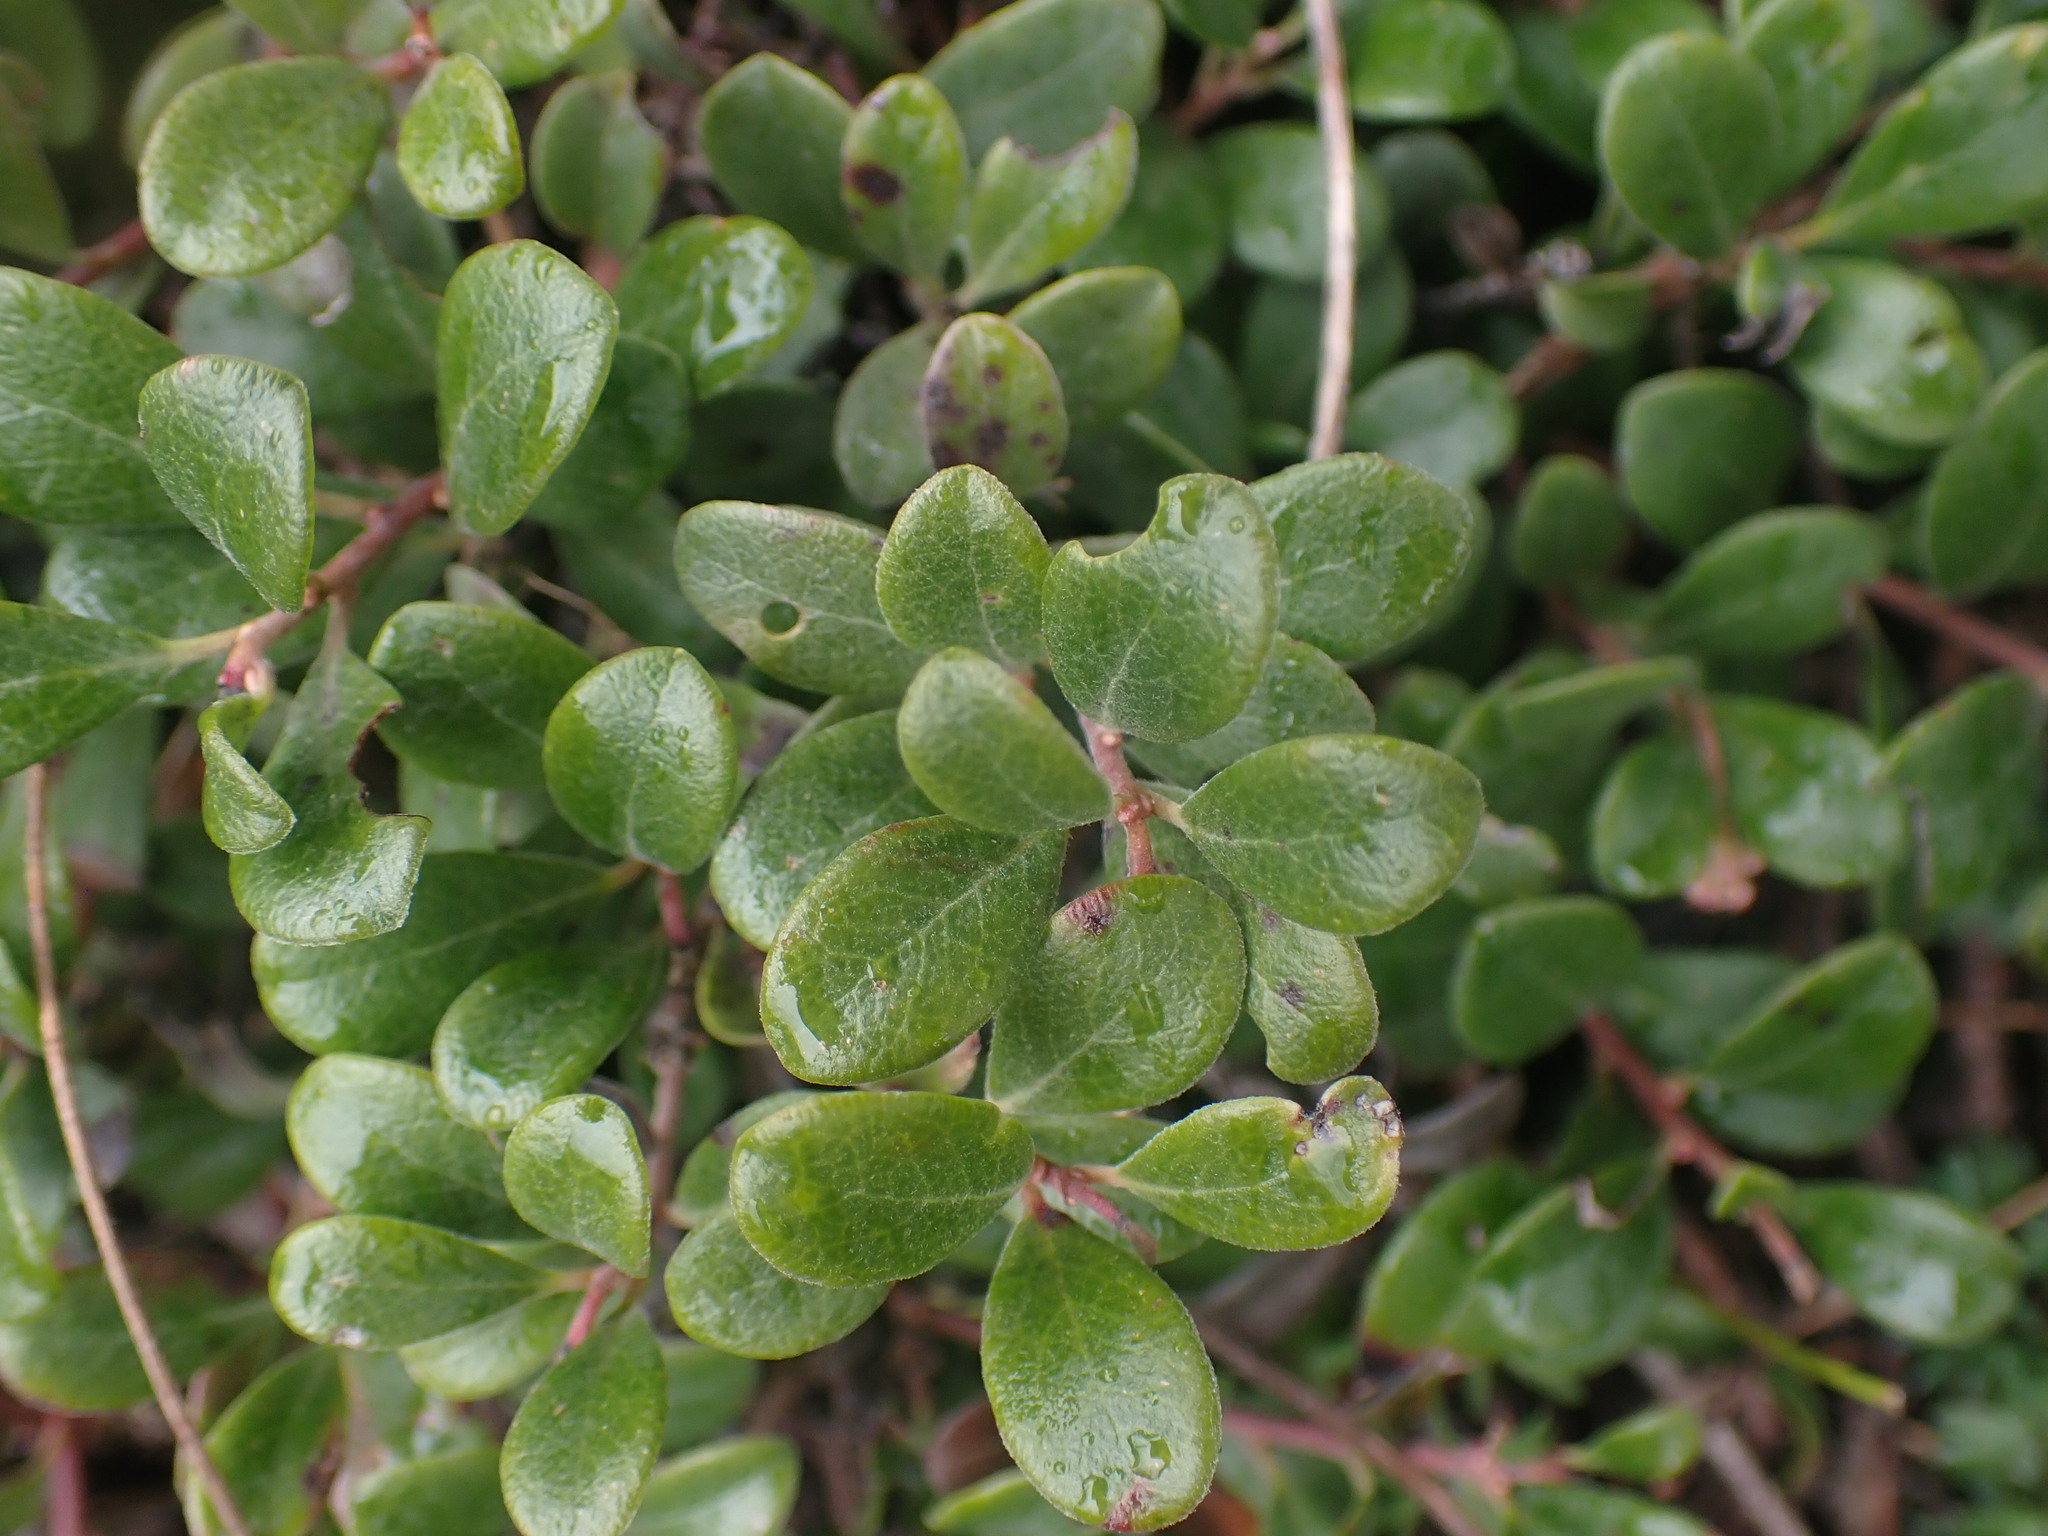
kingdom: Plantae
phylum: Tracheophyta
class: Magnoliopsida
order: Ericales
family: Ericaceae
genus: Arctostaphylos
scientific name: Arctostaphylos uva-ursi
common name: Bearberry
